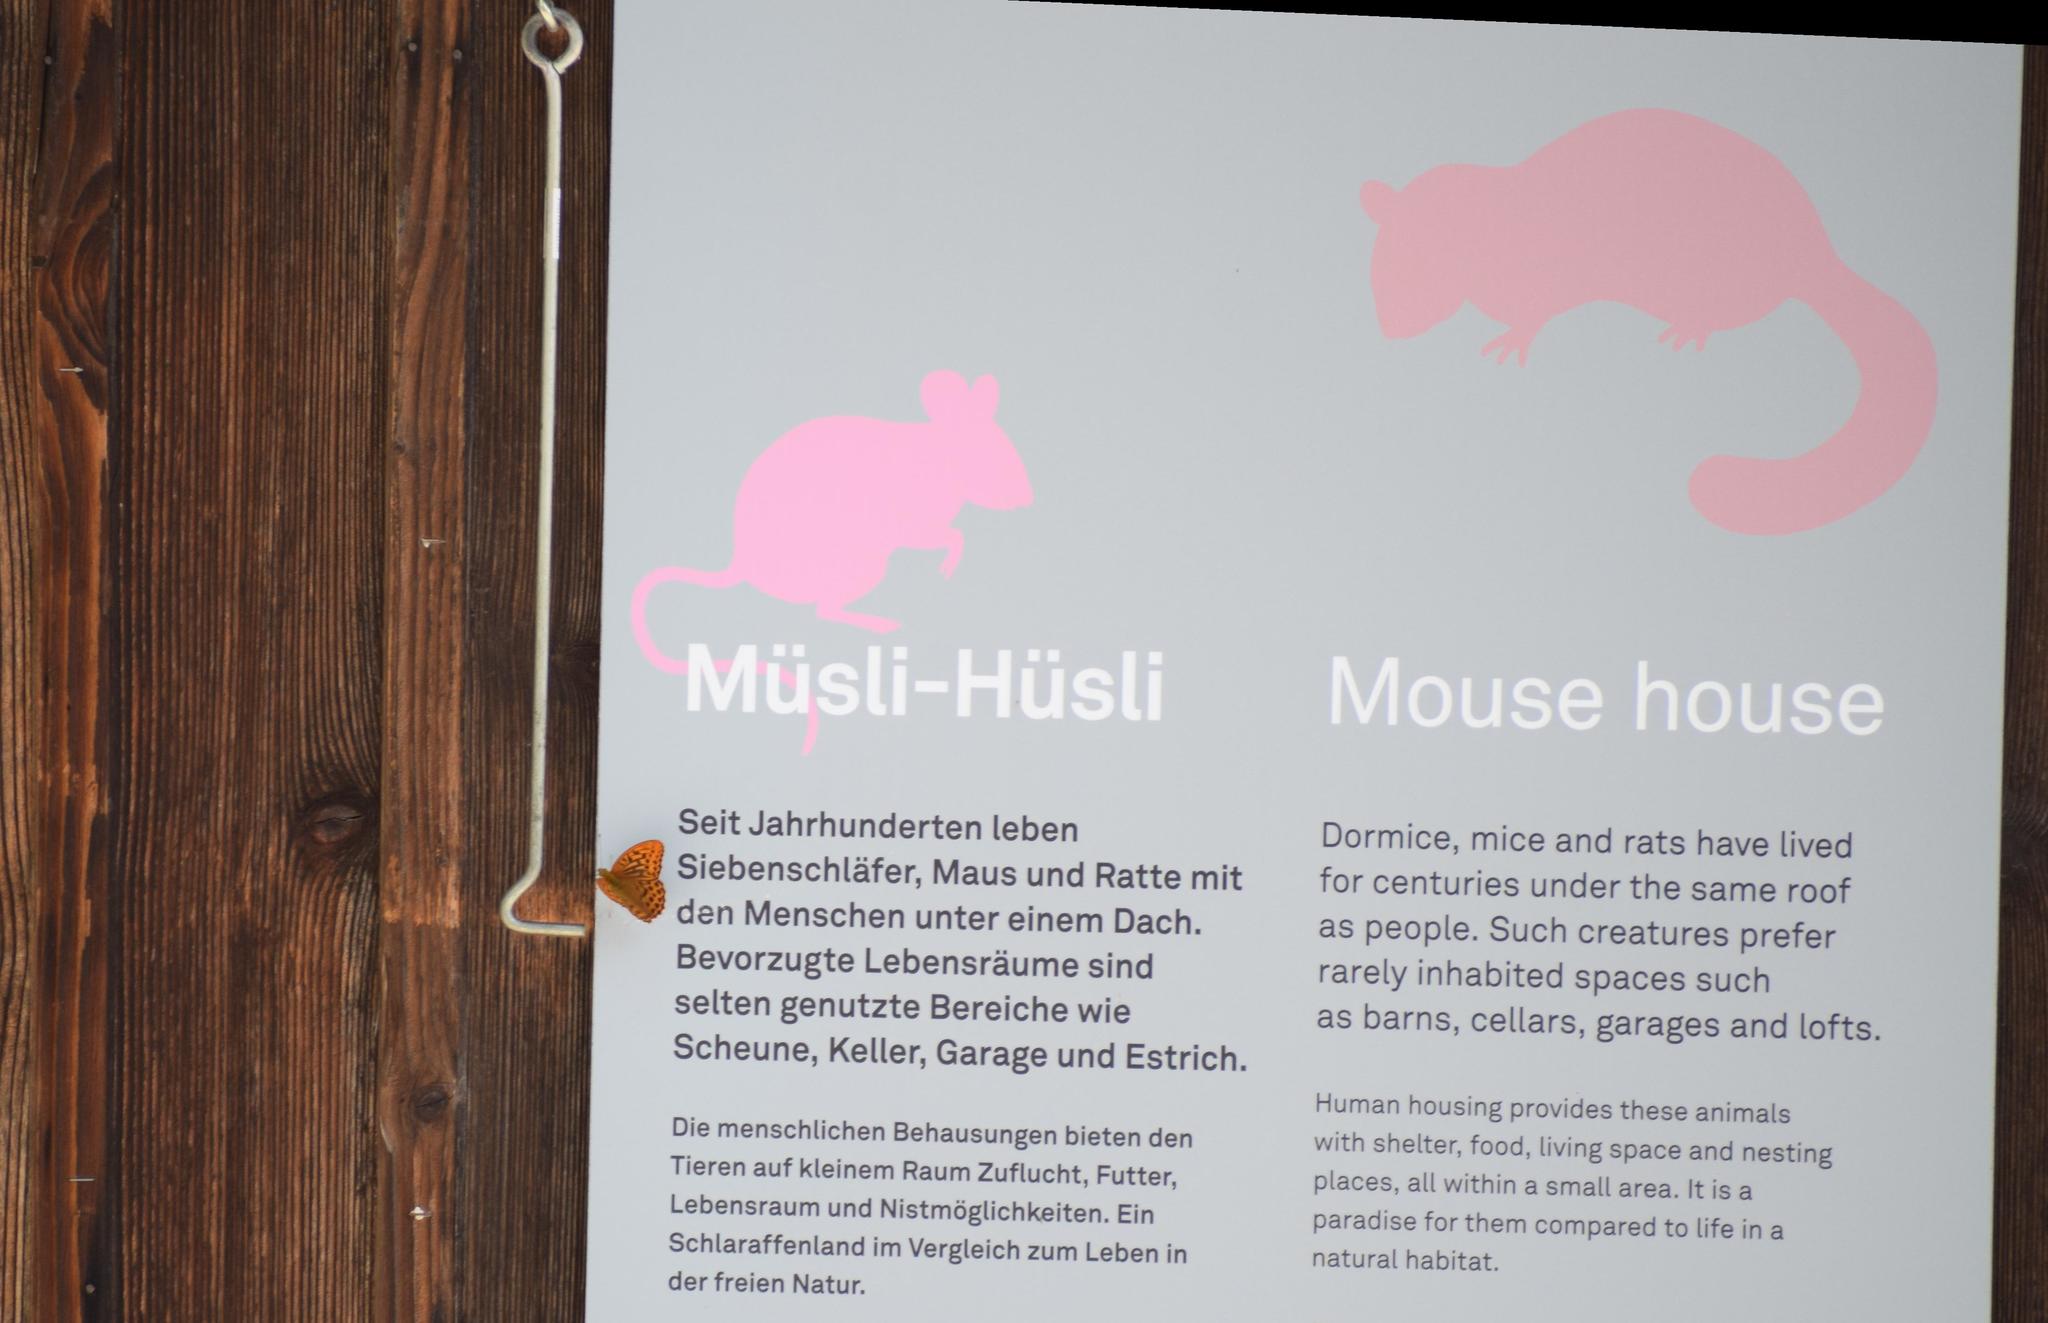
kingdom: Animalia
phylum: Arthropoda
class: Insecta
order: Lepidoptera
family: Nymphalidae
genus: Argynnis
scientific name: Argynnis paphia
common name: Silver-washed fritillary
